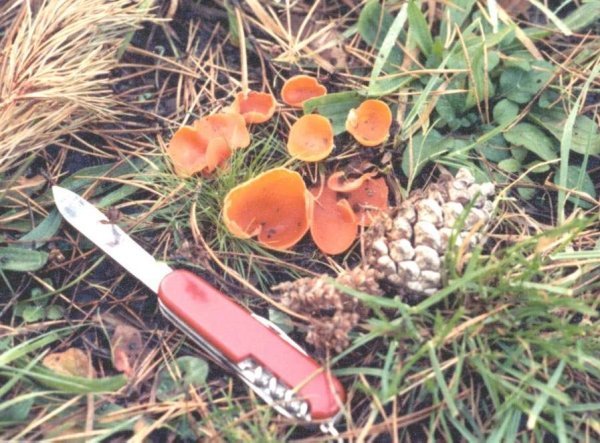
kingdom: Fungi
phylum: Ascomycota
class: Pezizomycetes
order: Pezizales
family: Pyronemataceae
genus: Aleuria
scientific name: Aleuria aurantia
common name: Orange peel fungus
